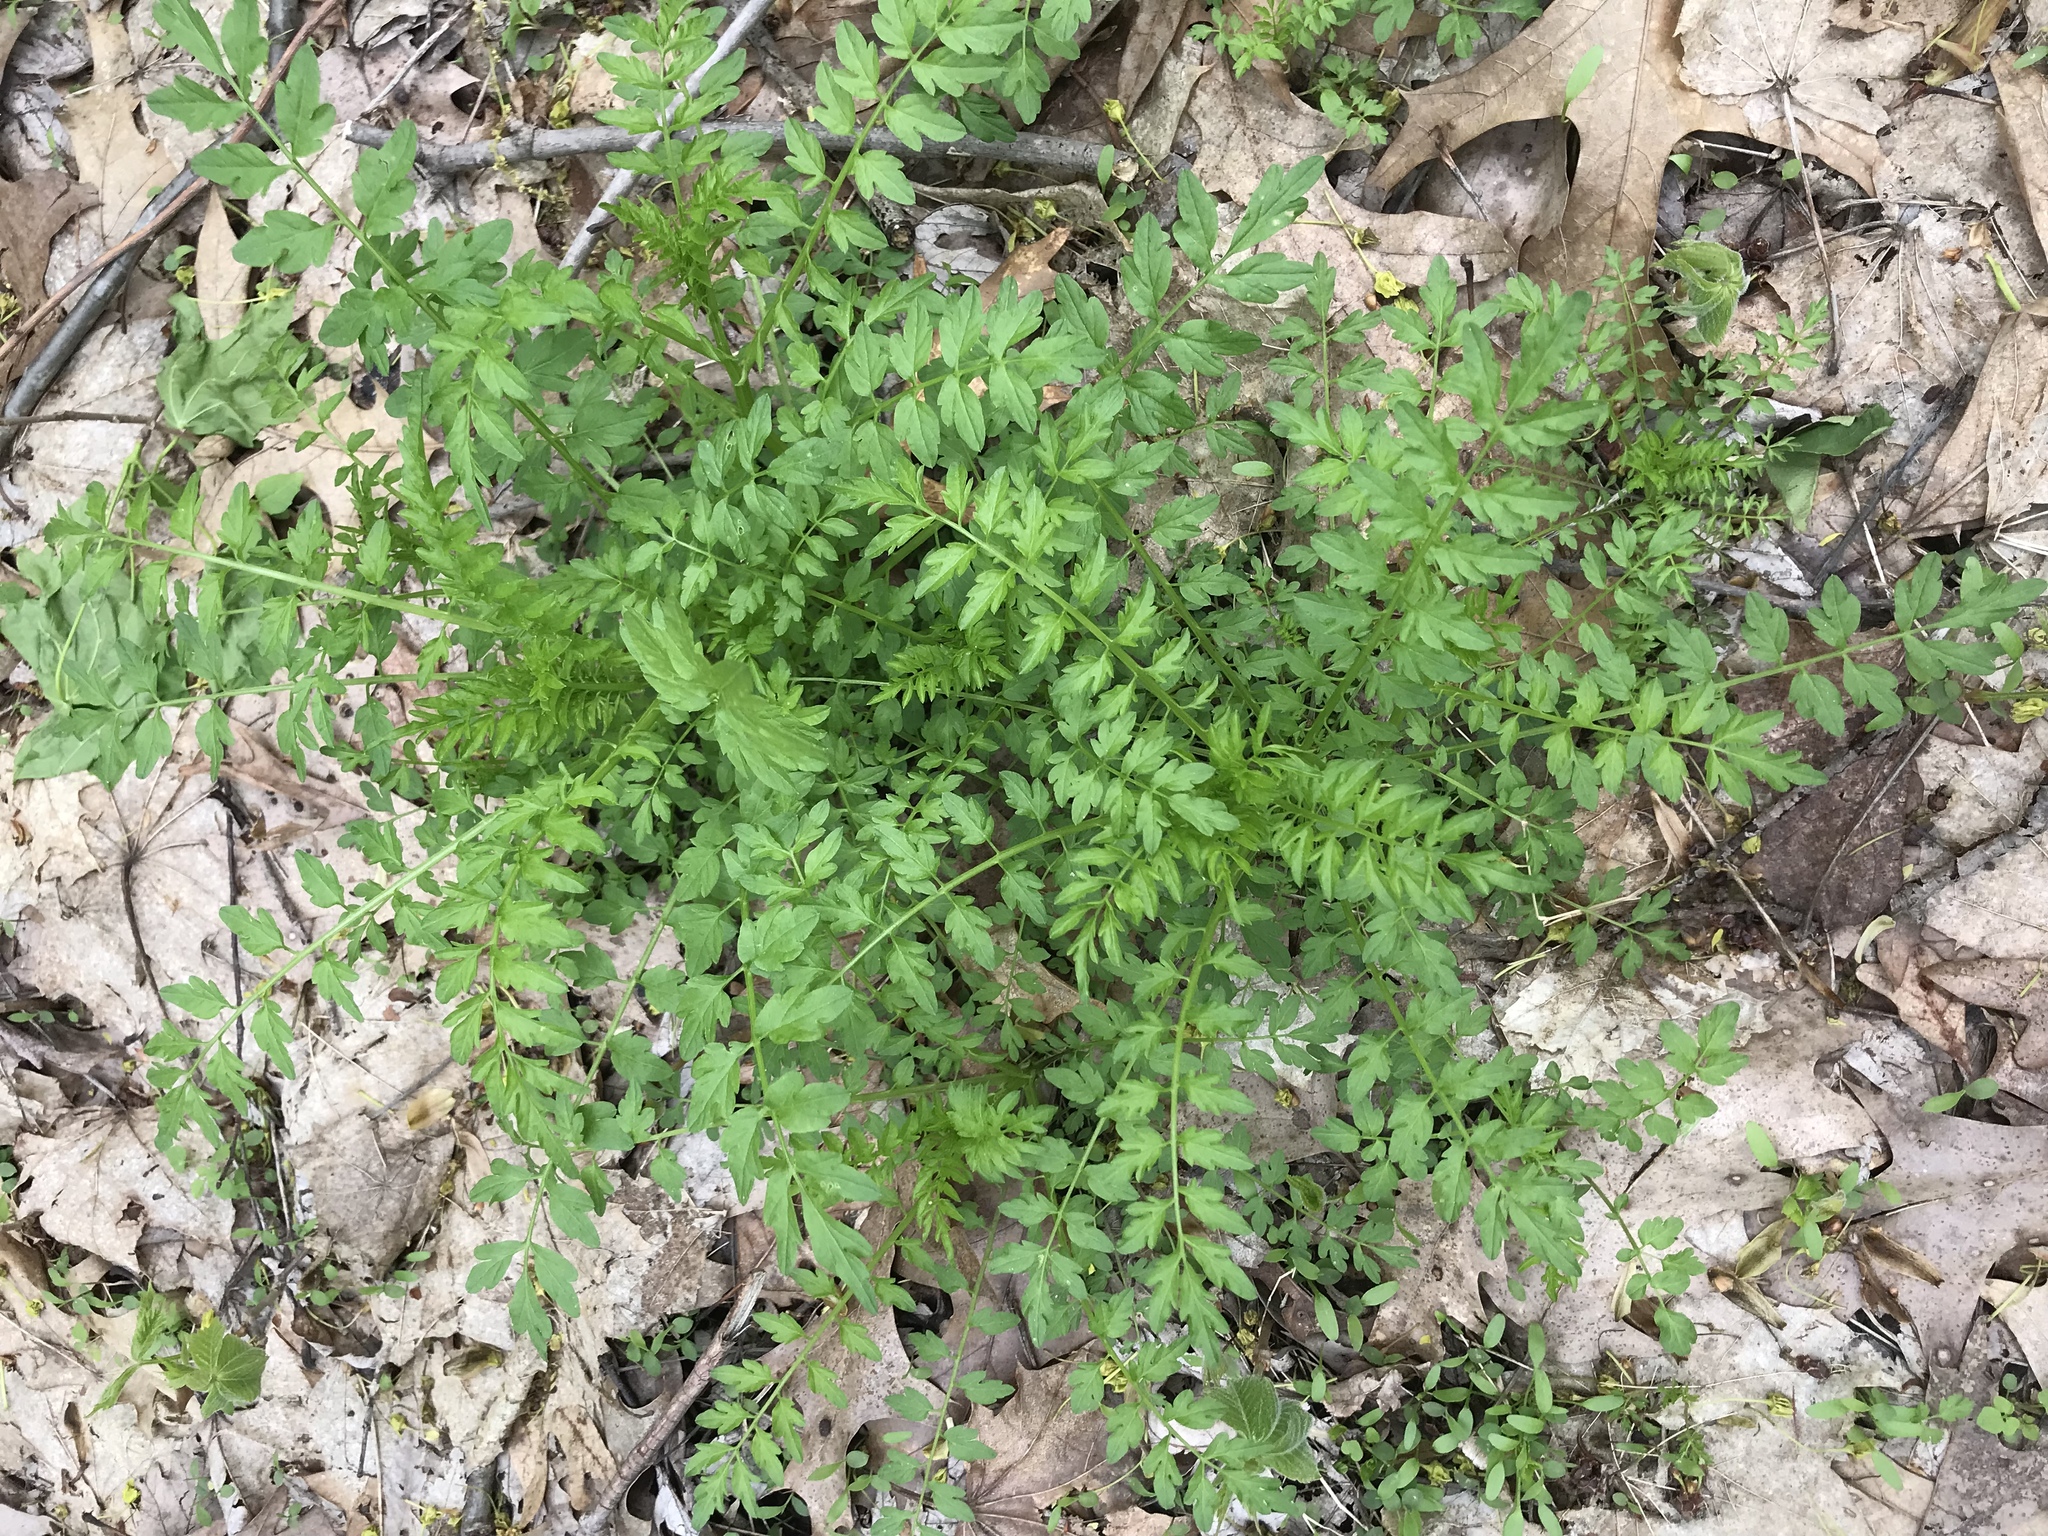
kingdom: Plantae
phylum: Tracheophyta
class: Magnoliopsida
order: Brassicales
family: Brassicaceae
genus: Cardamine
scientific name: Cardamine impatiens
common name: Narrow-leaved bitter-cress
